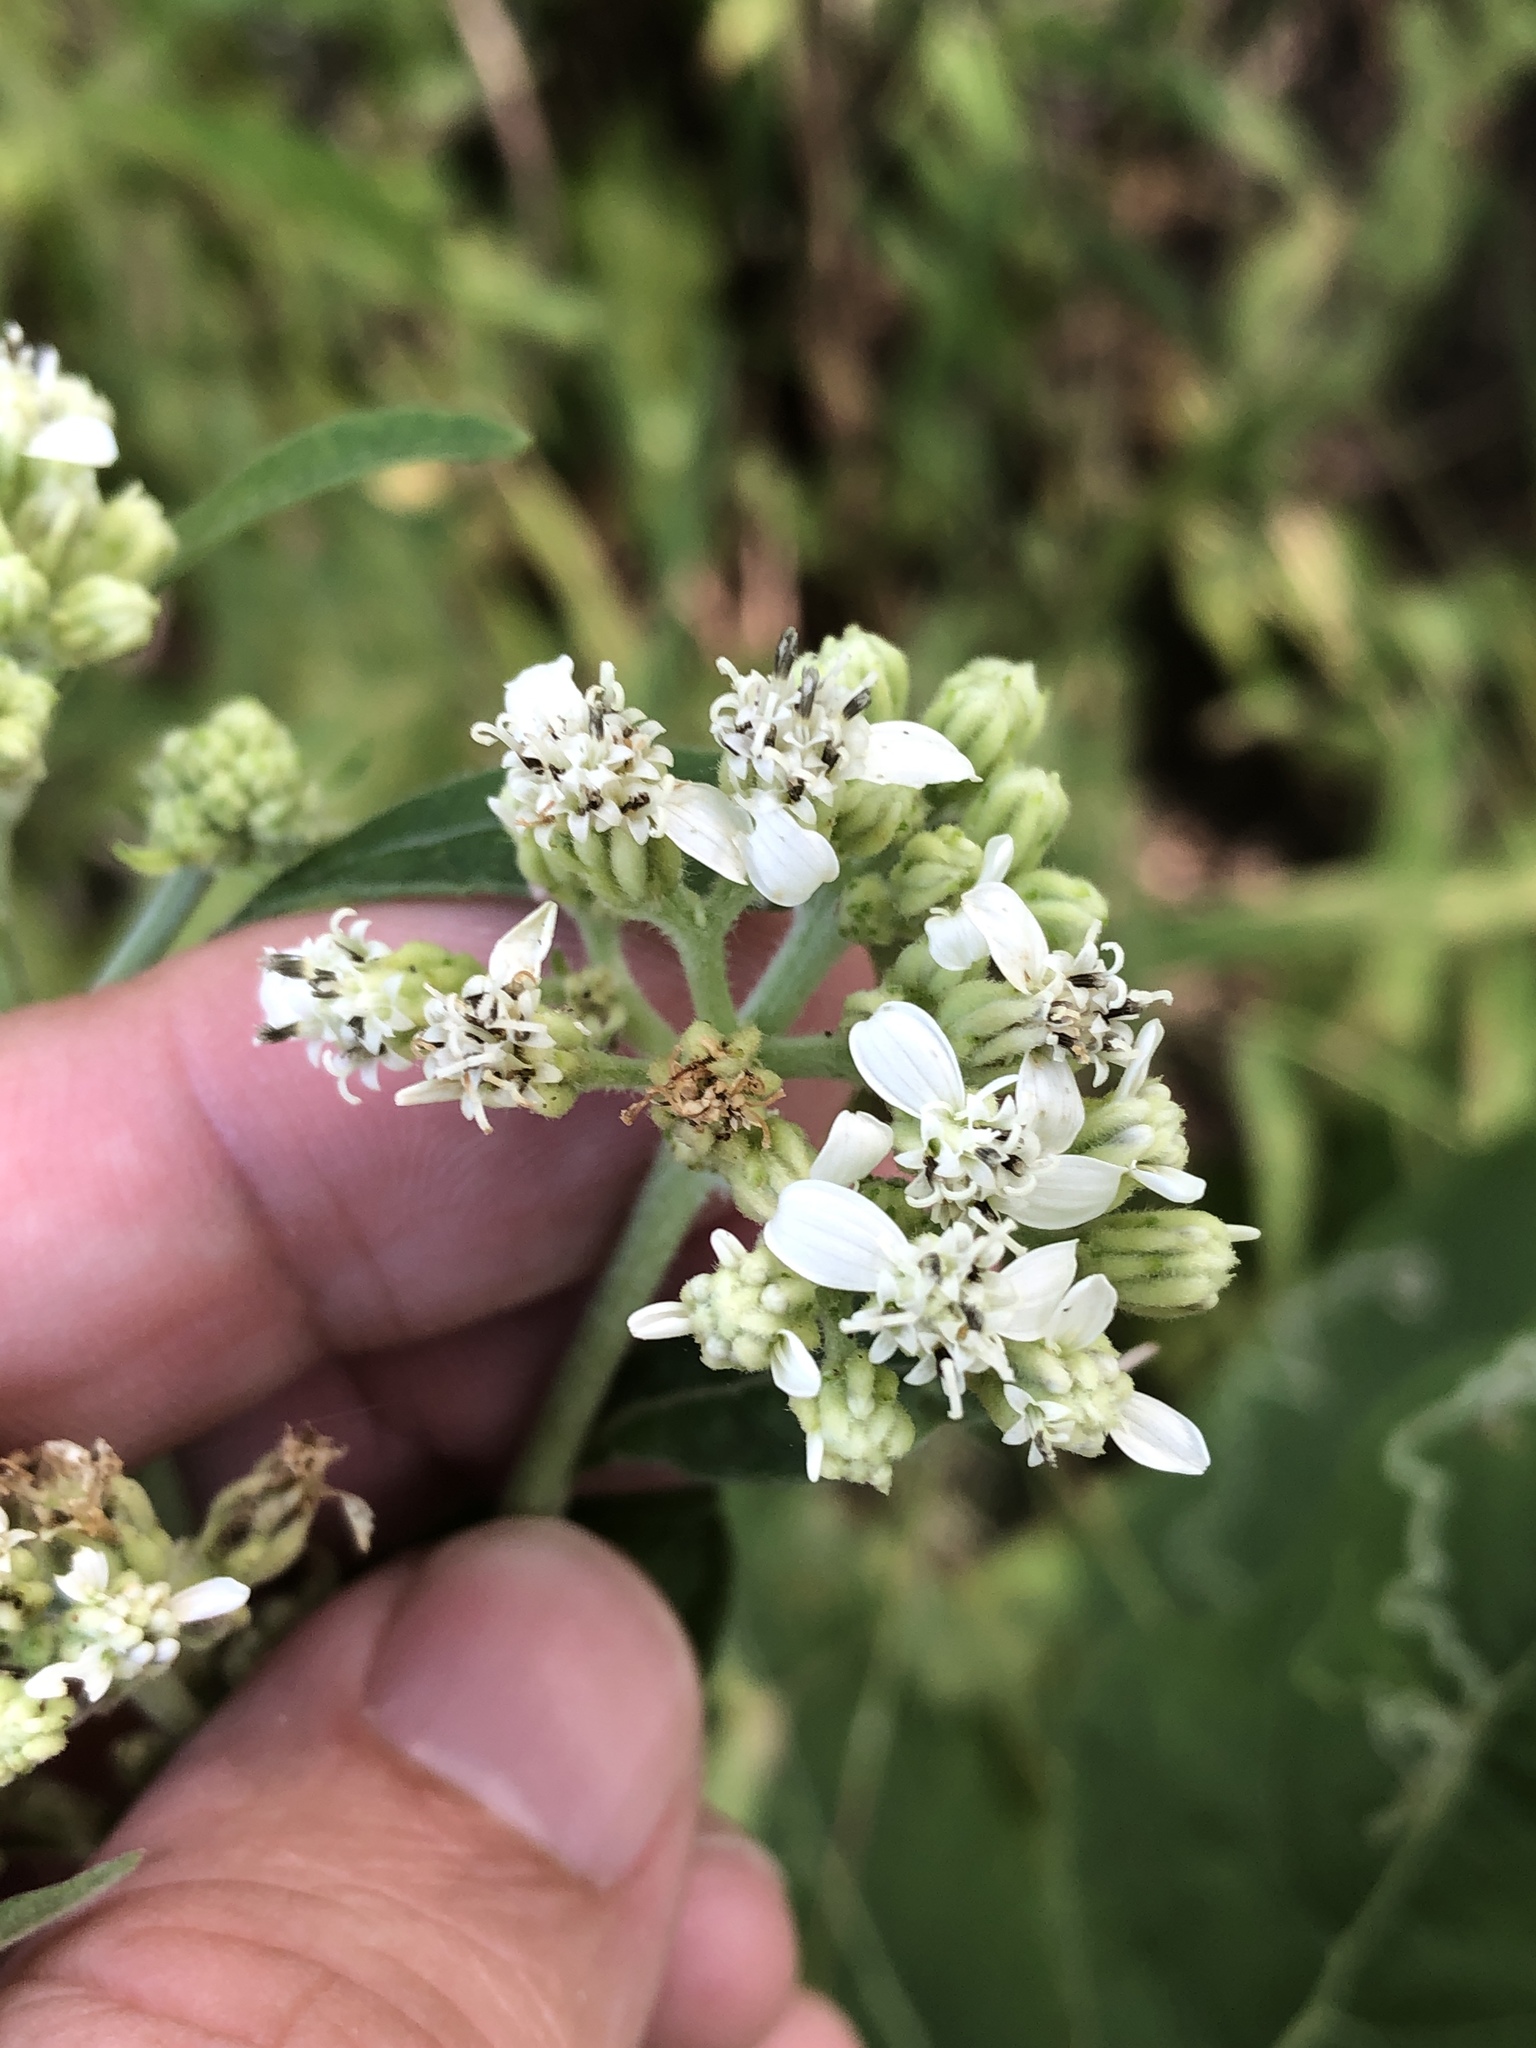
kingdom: Plantae
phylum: Tracheophyta
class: Magnoliopsida
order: Asterales
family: Asteraceae
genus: Verbesina
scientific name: Verbesina virginica
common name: Frostweed
